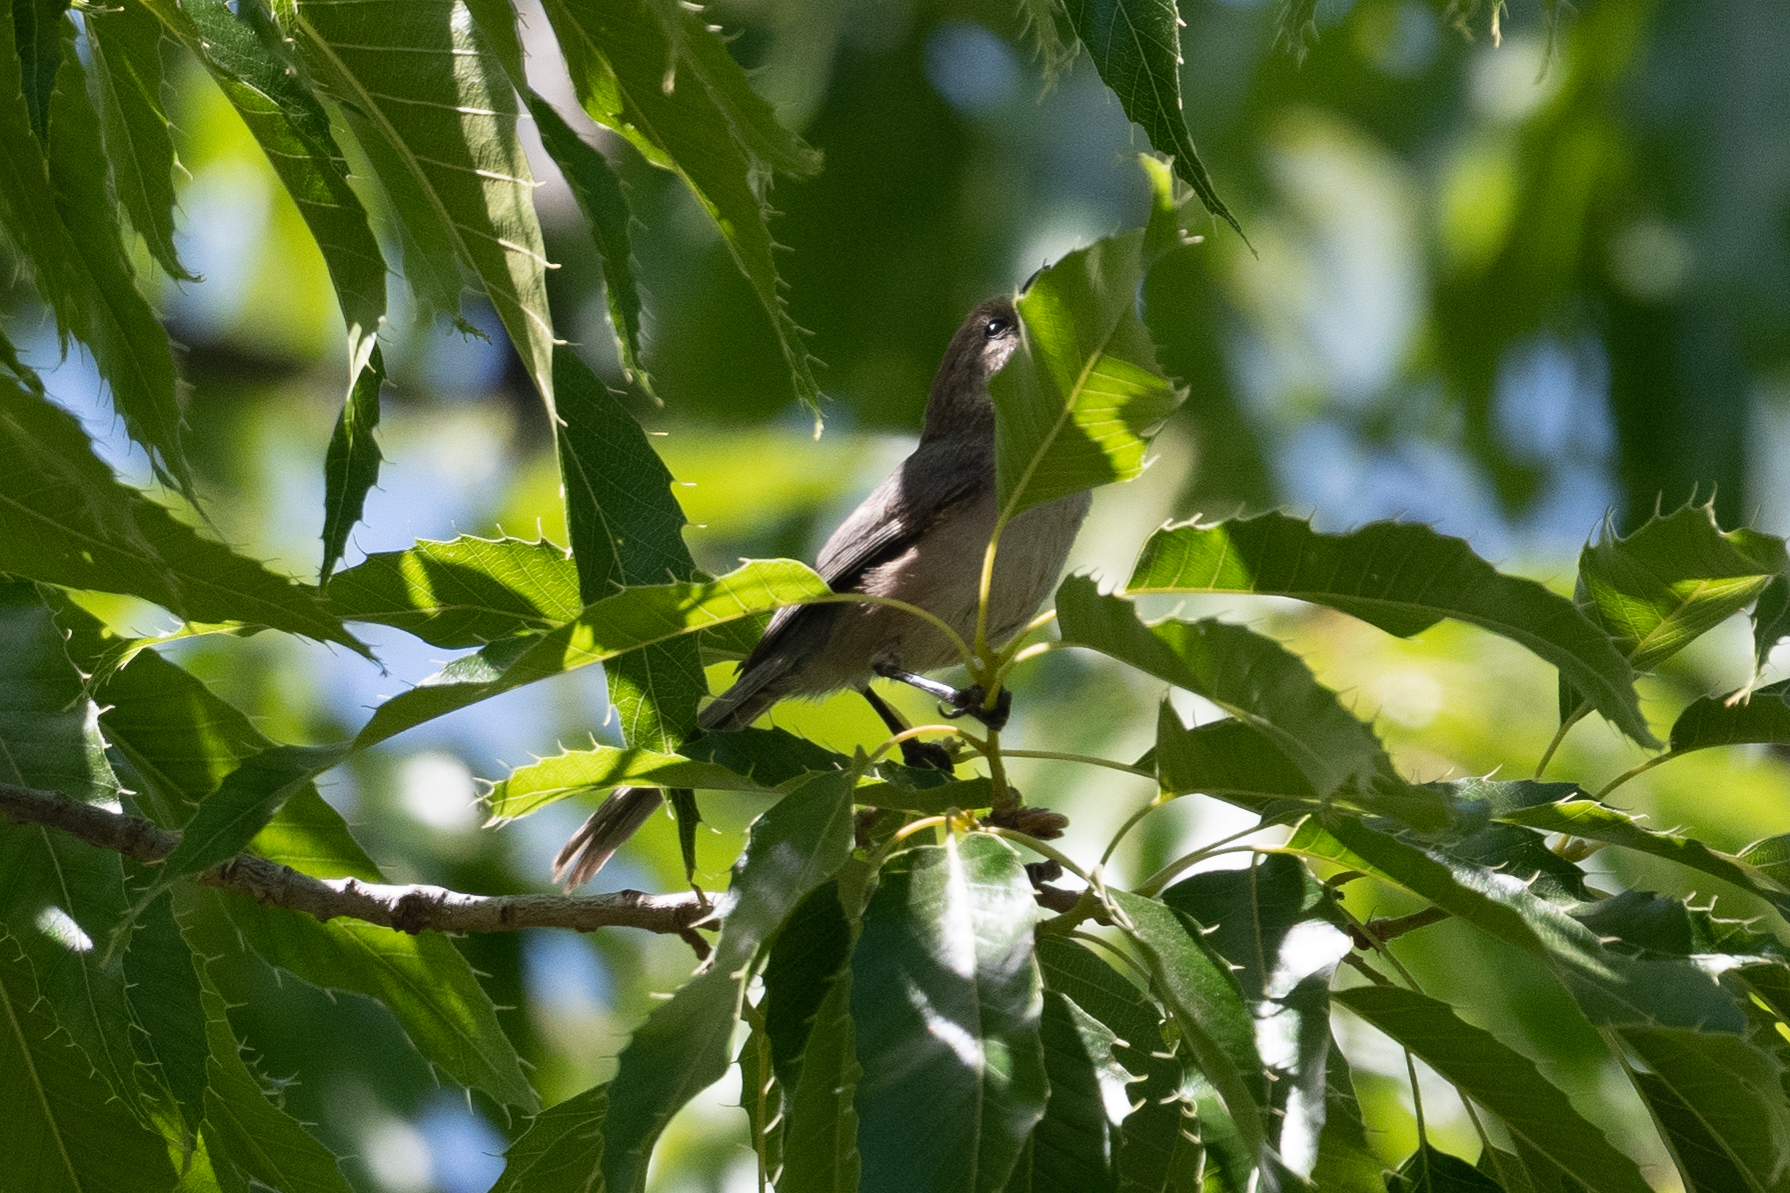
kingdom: Animalia
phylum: Chordata
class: Aves
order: Passeriformes
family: Aegithalidae
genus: Psaltriparus
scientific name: Psaltriparus minimus
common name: American bushtit
